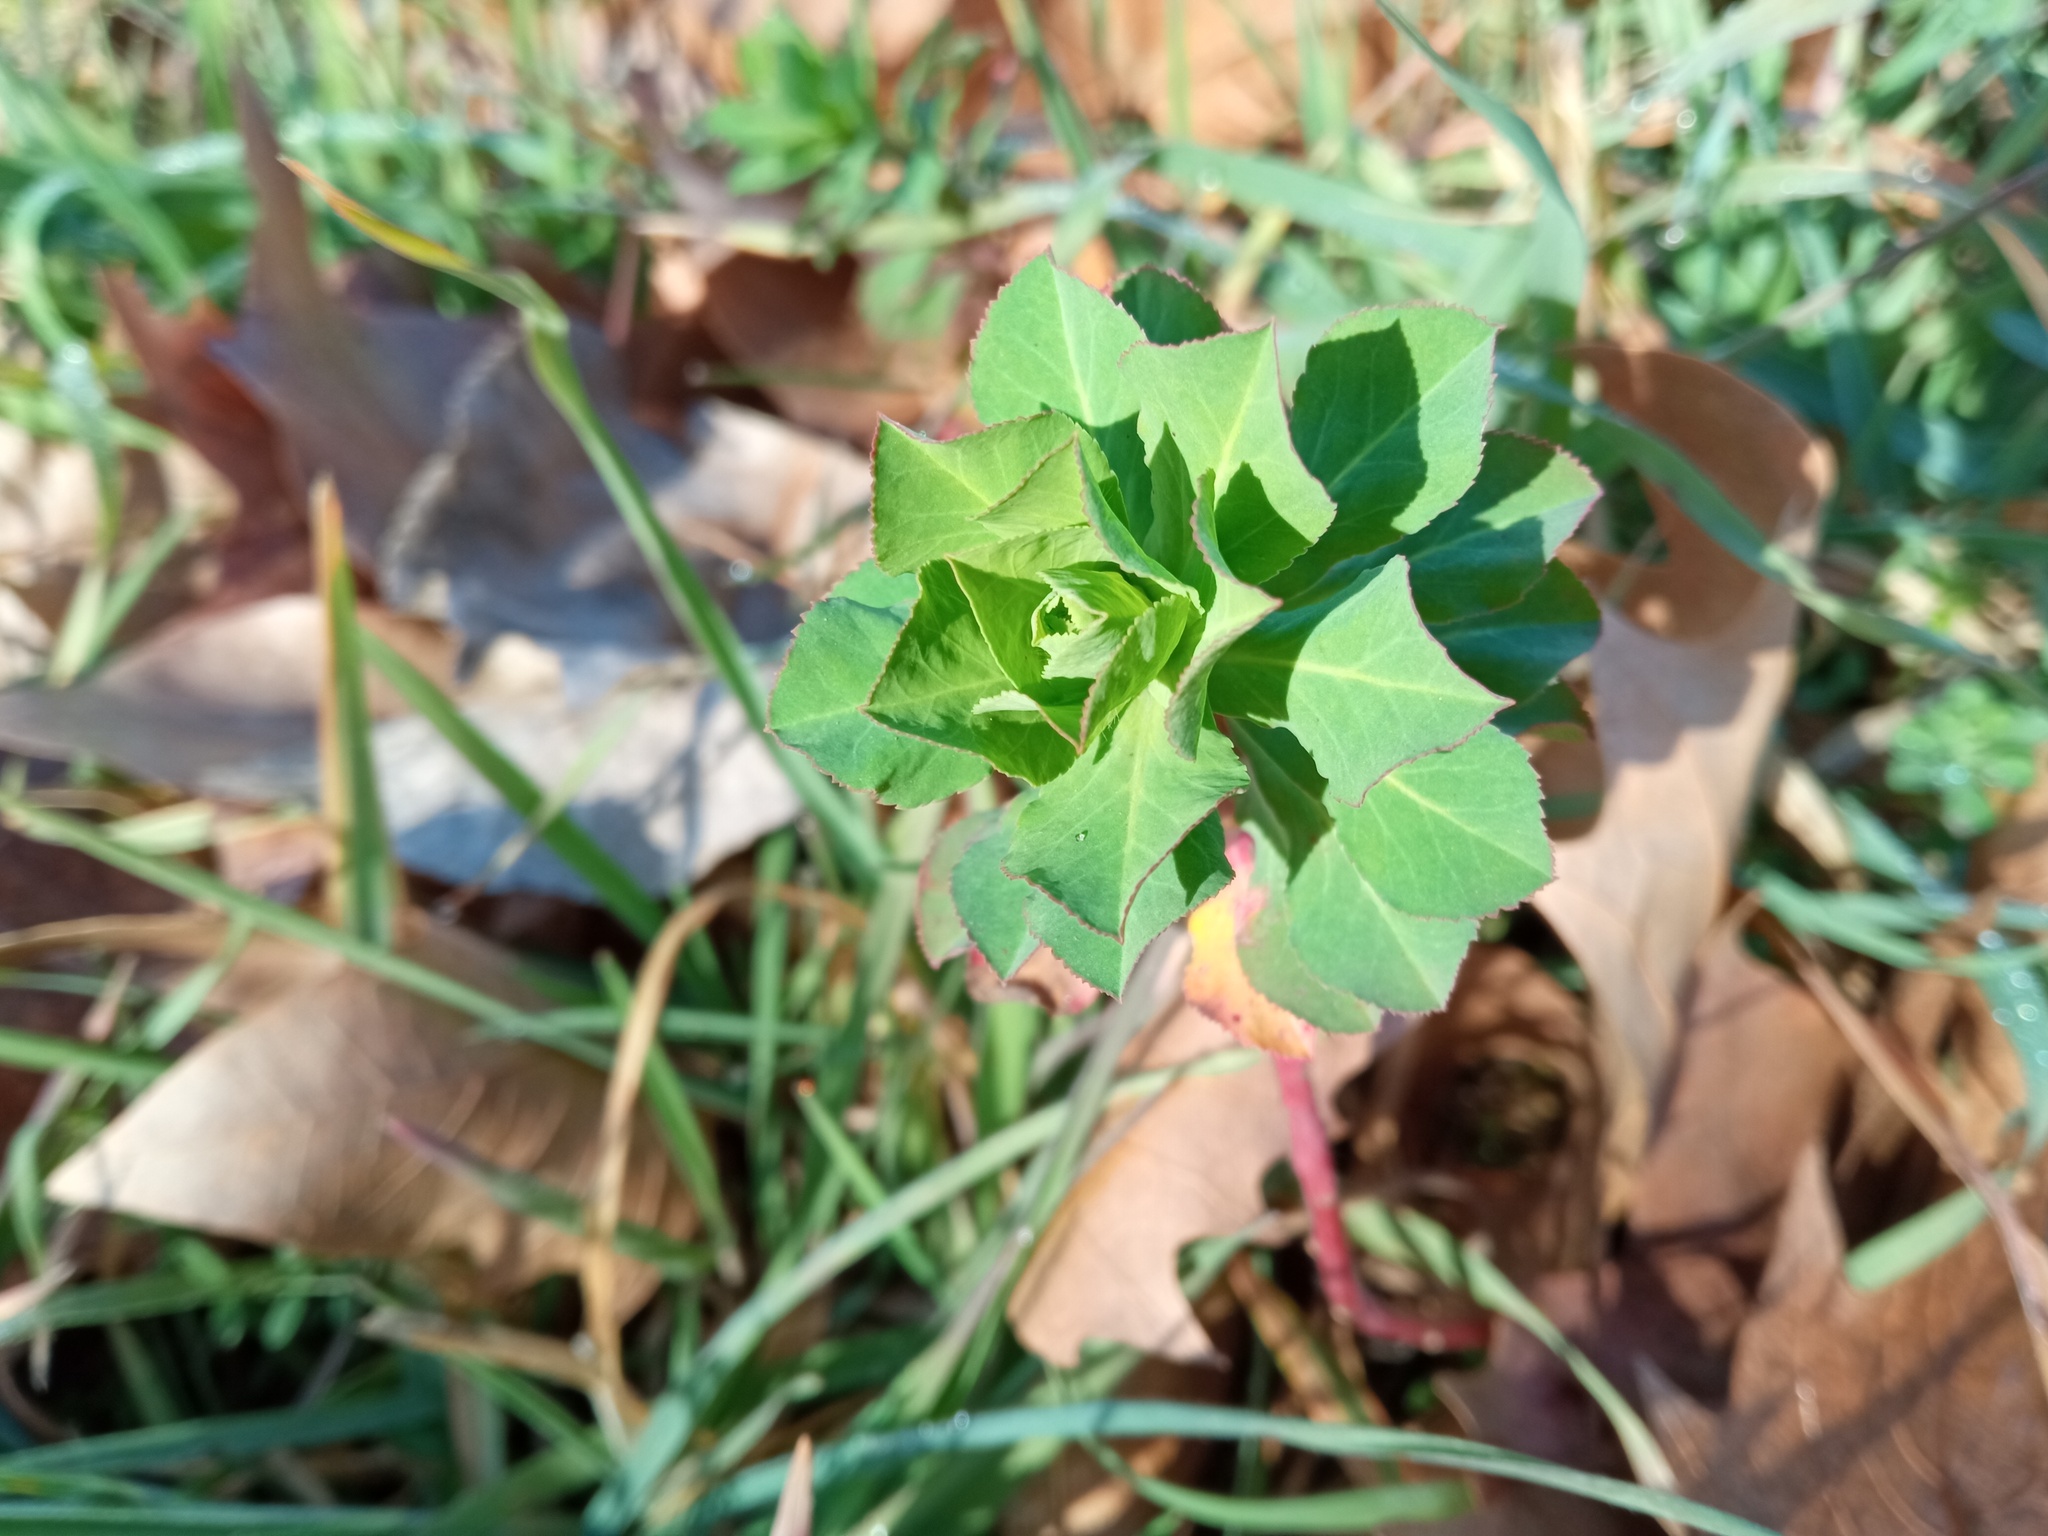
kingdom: Plantae
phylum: Tracheophyta
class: Magnoliopsida
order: Malpighiales
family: Euphorbiaceae
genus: Euphorbia
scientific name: Euphorbia helioscopia
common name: Sun spurge
